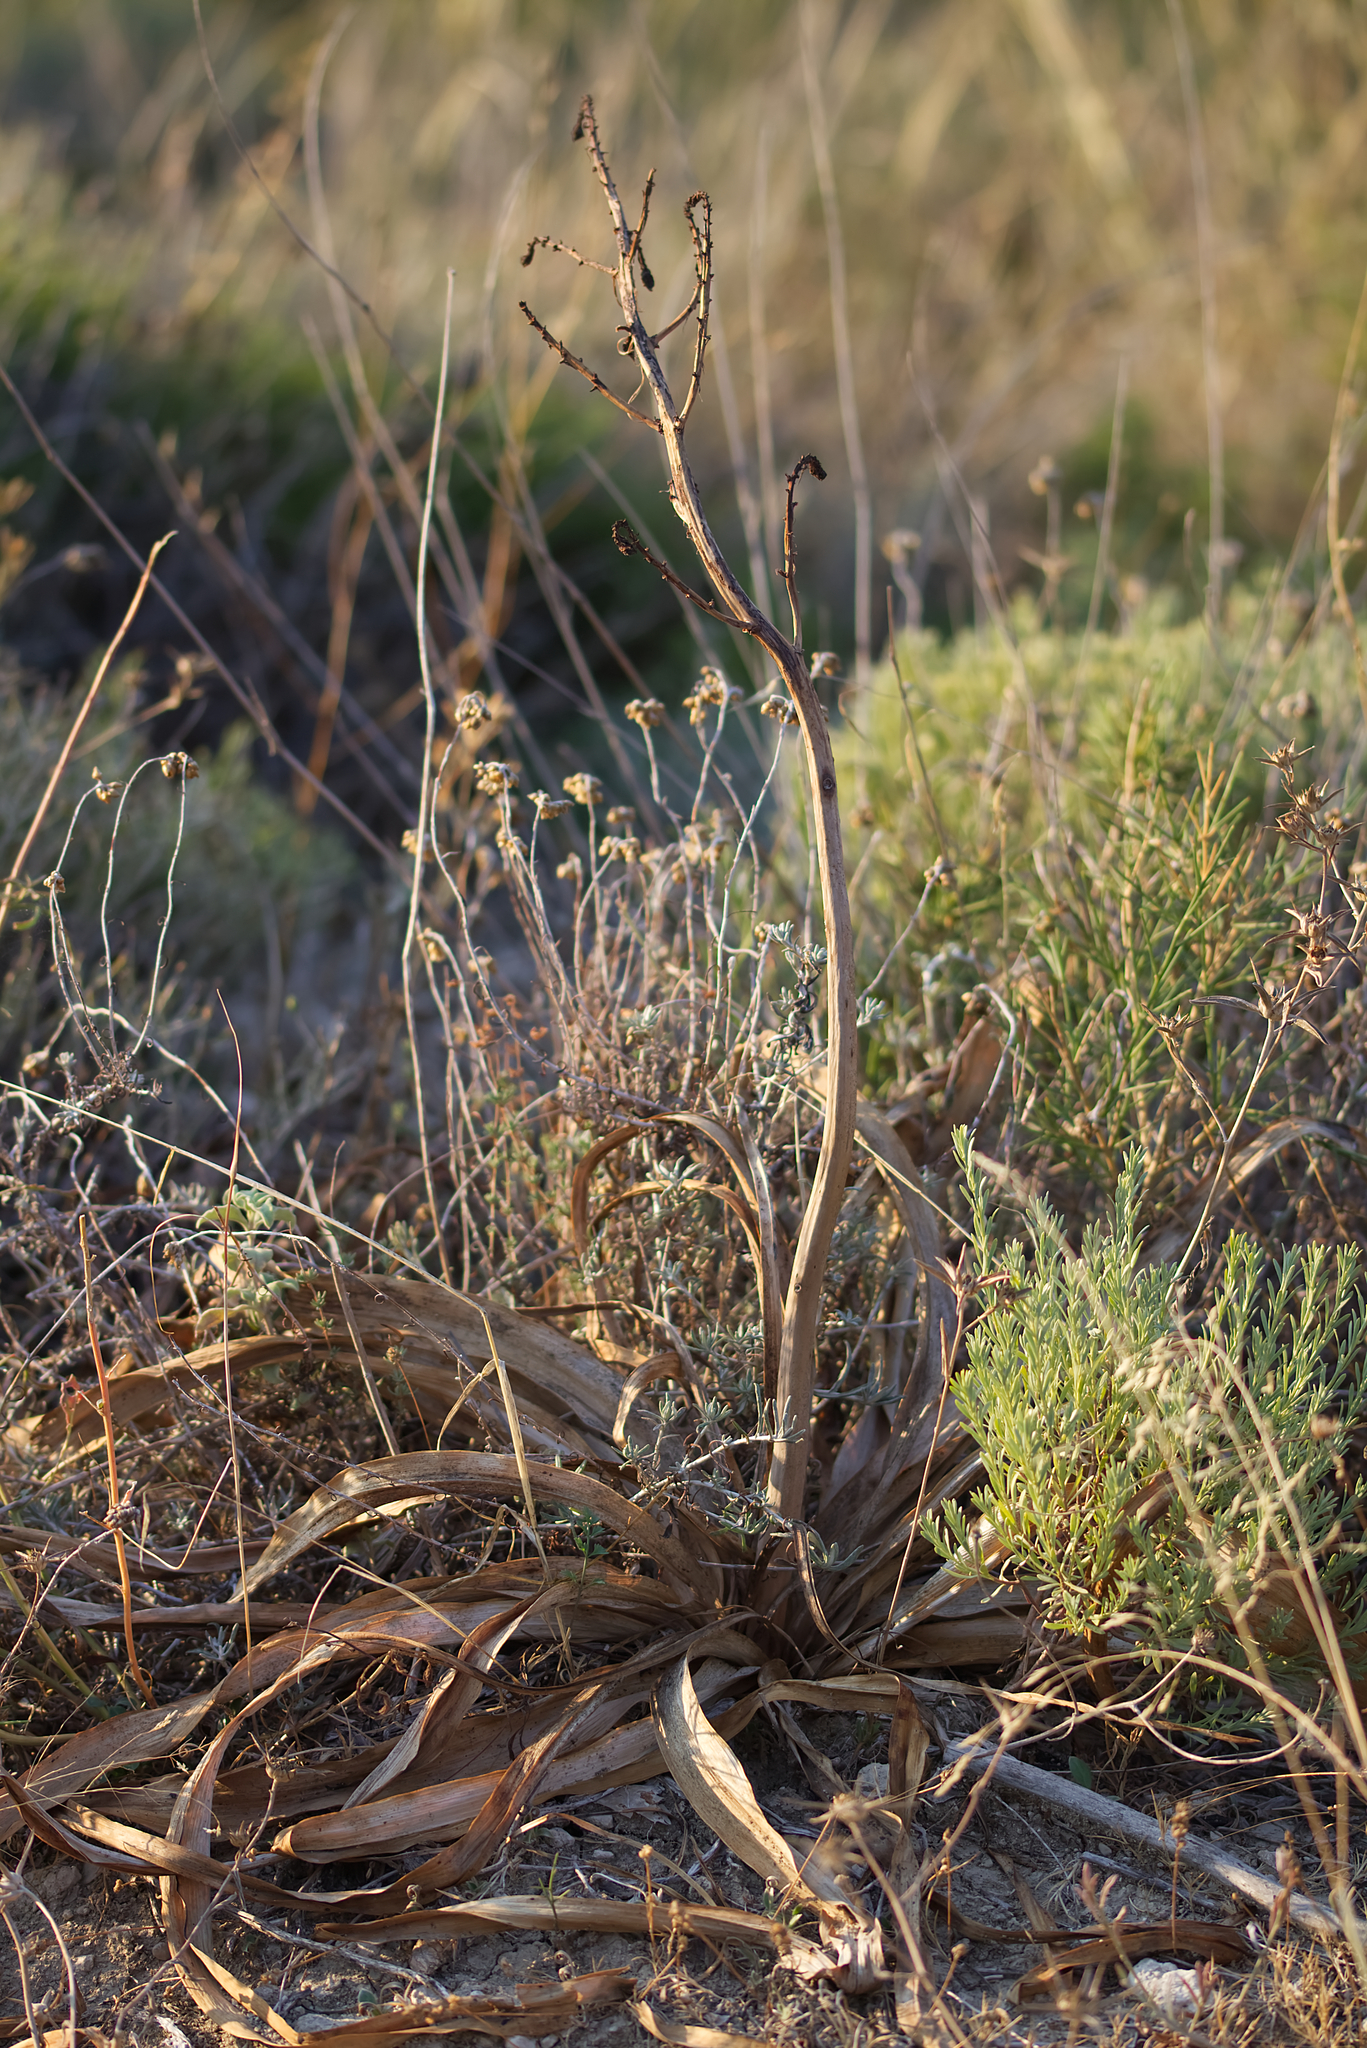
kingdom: Plantae
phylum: Tracheophyta
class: Liliopsida
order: Asparagales
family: Asphodelaceae
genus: Asphodelus
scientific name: Asphodelus ramosus
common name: Silverrod
